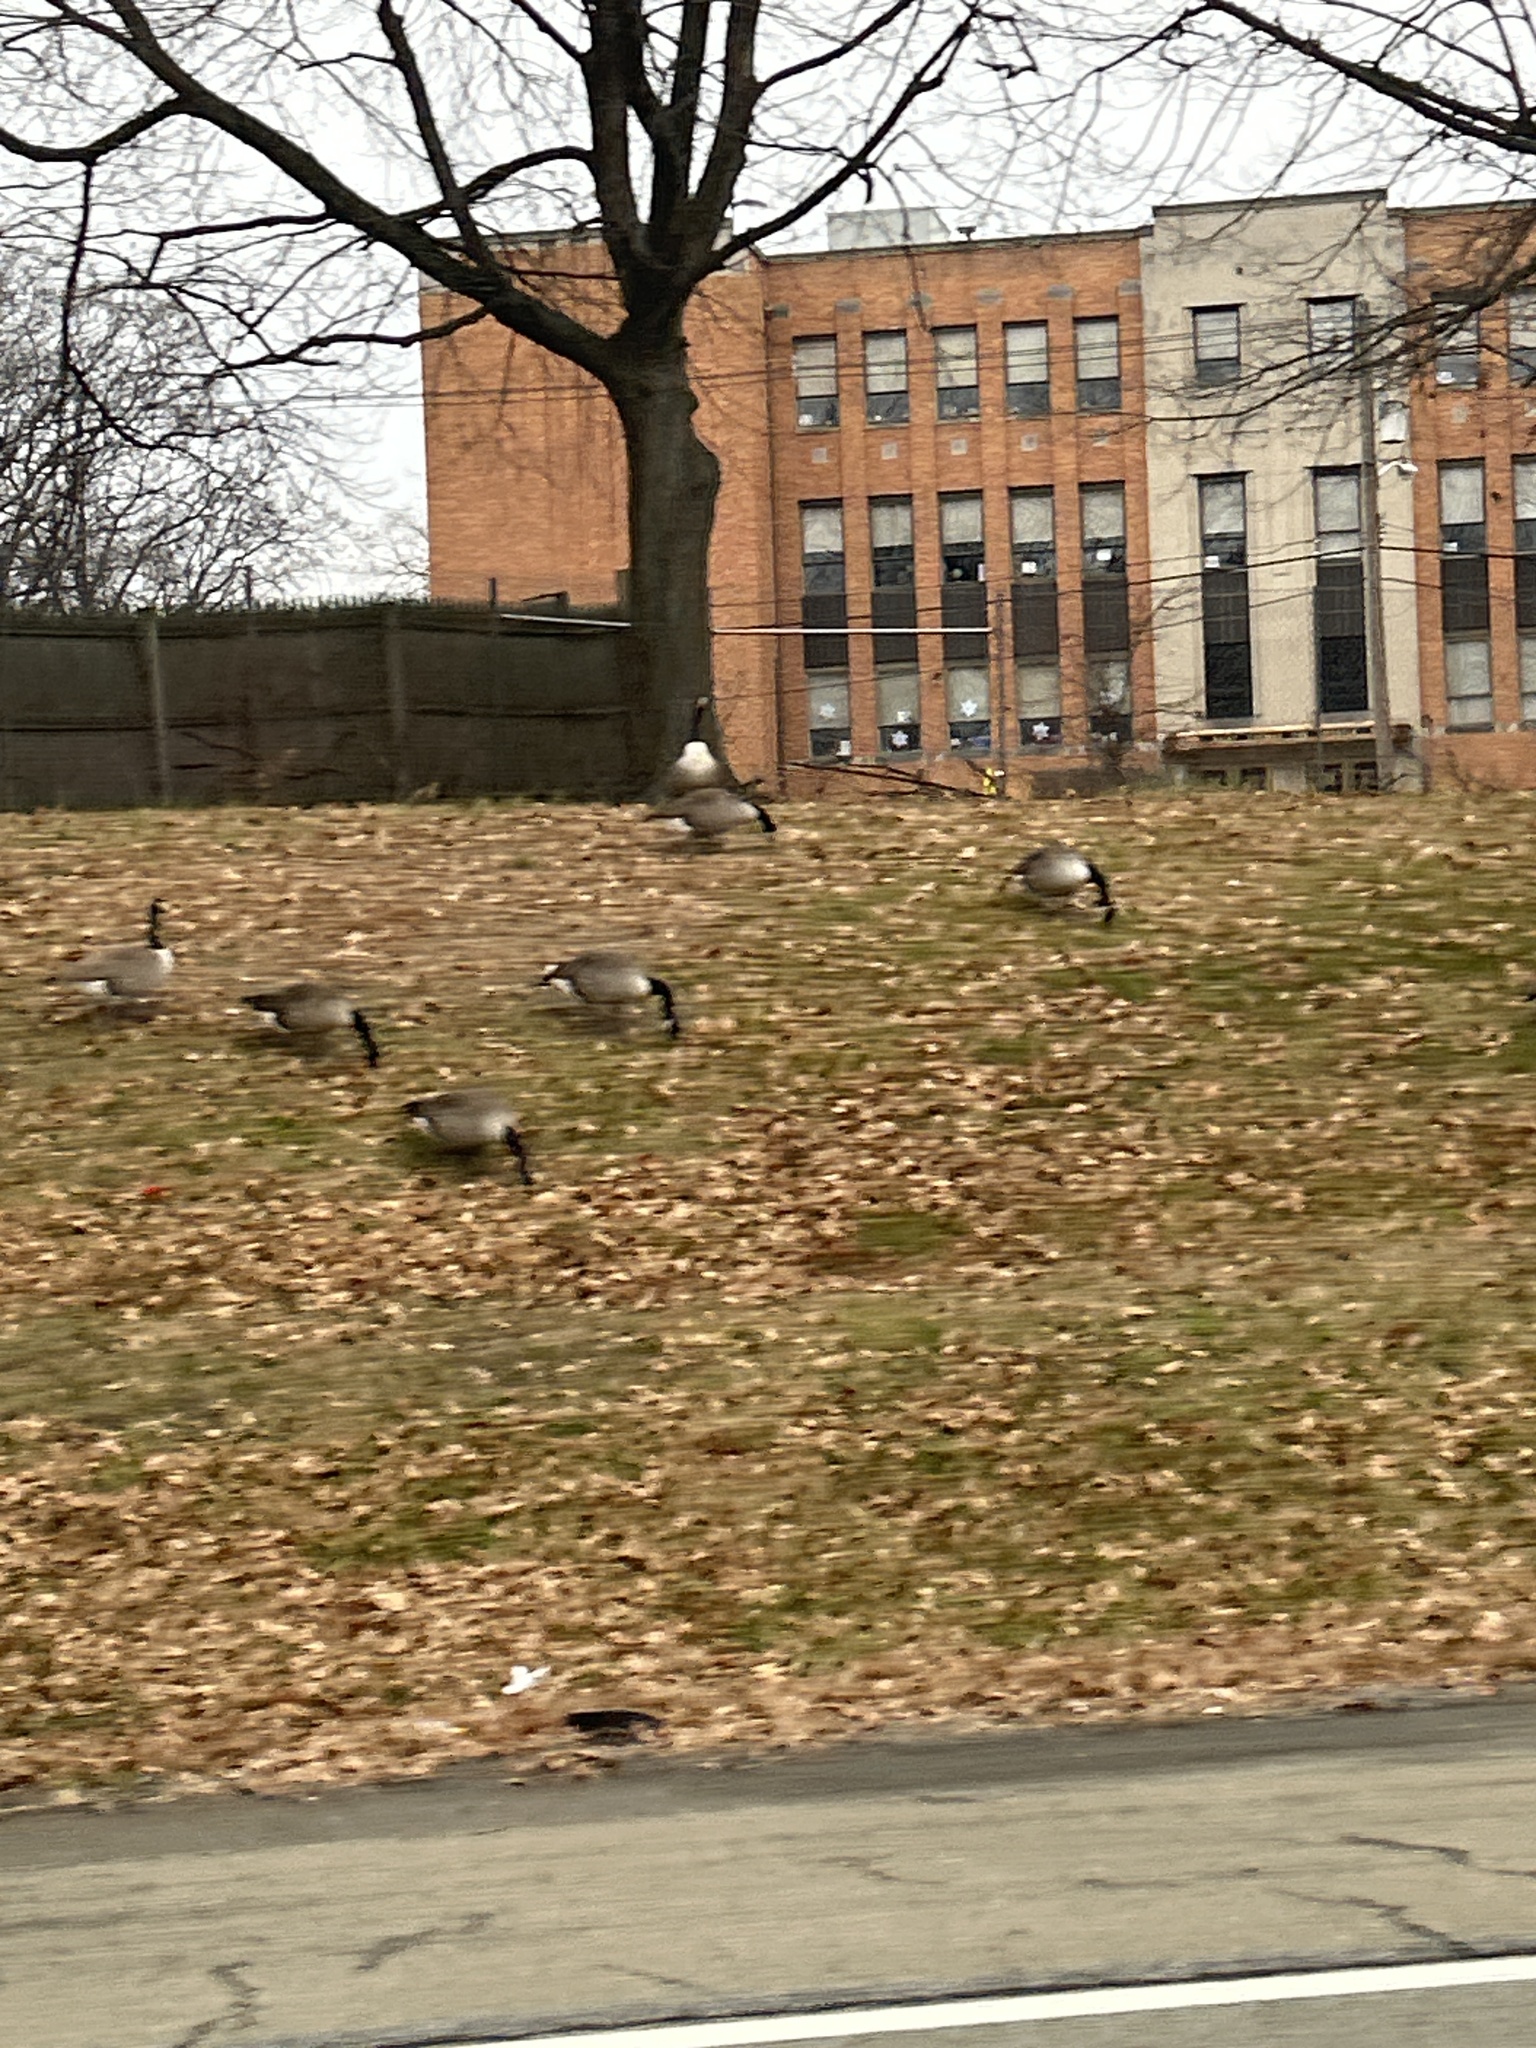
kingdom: Animalia
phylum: Chordata
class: Aves
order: Anseriformes
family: Anatidae
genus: Branta
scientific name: Branta canadensis
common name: Canada goose
